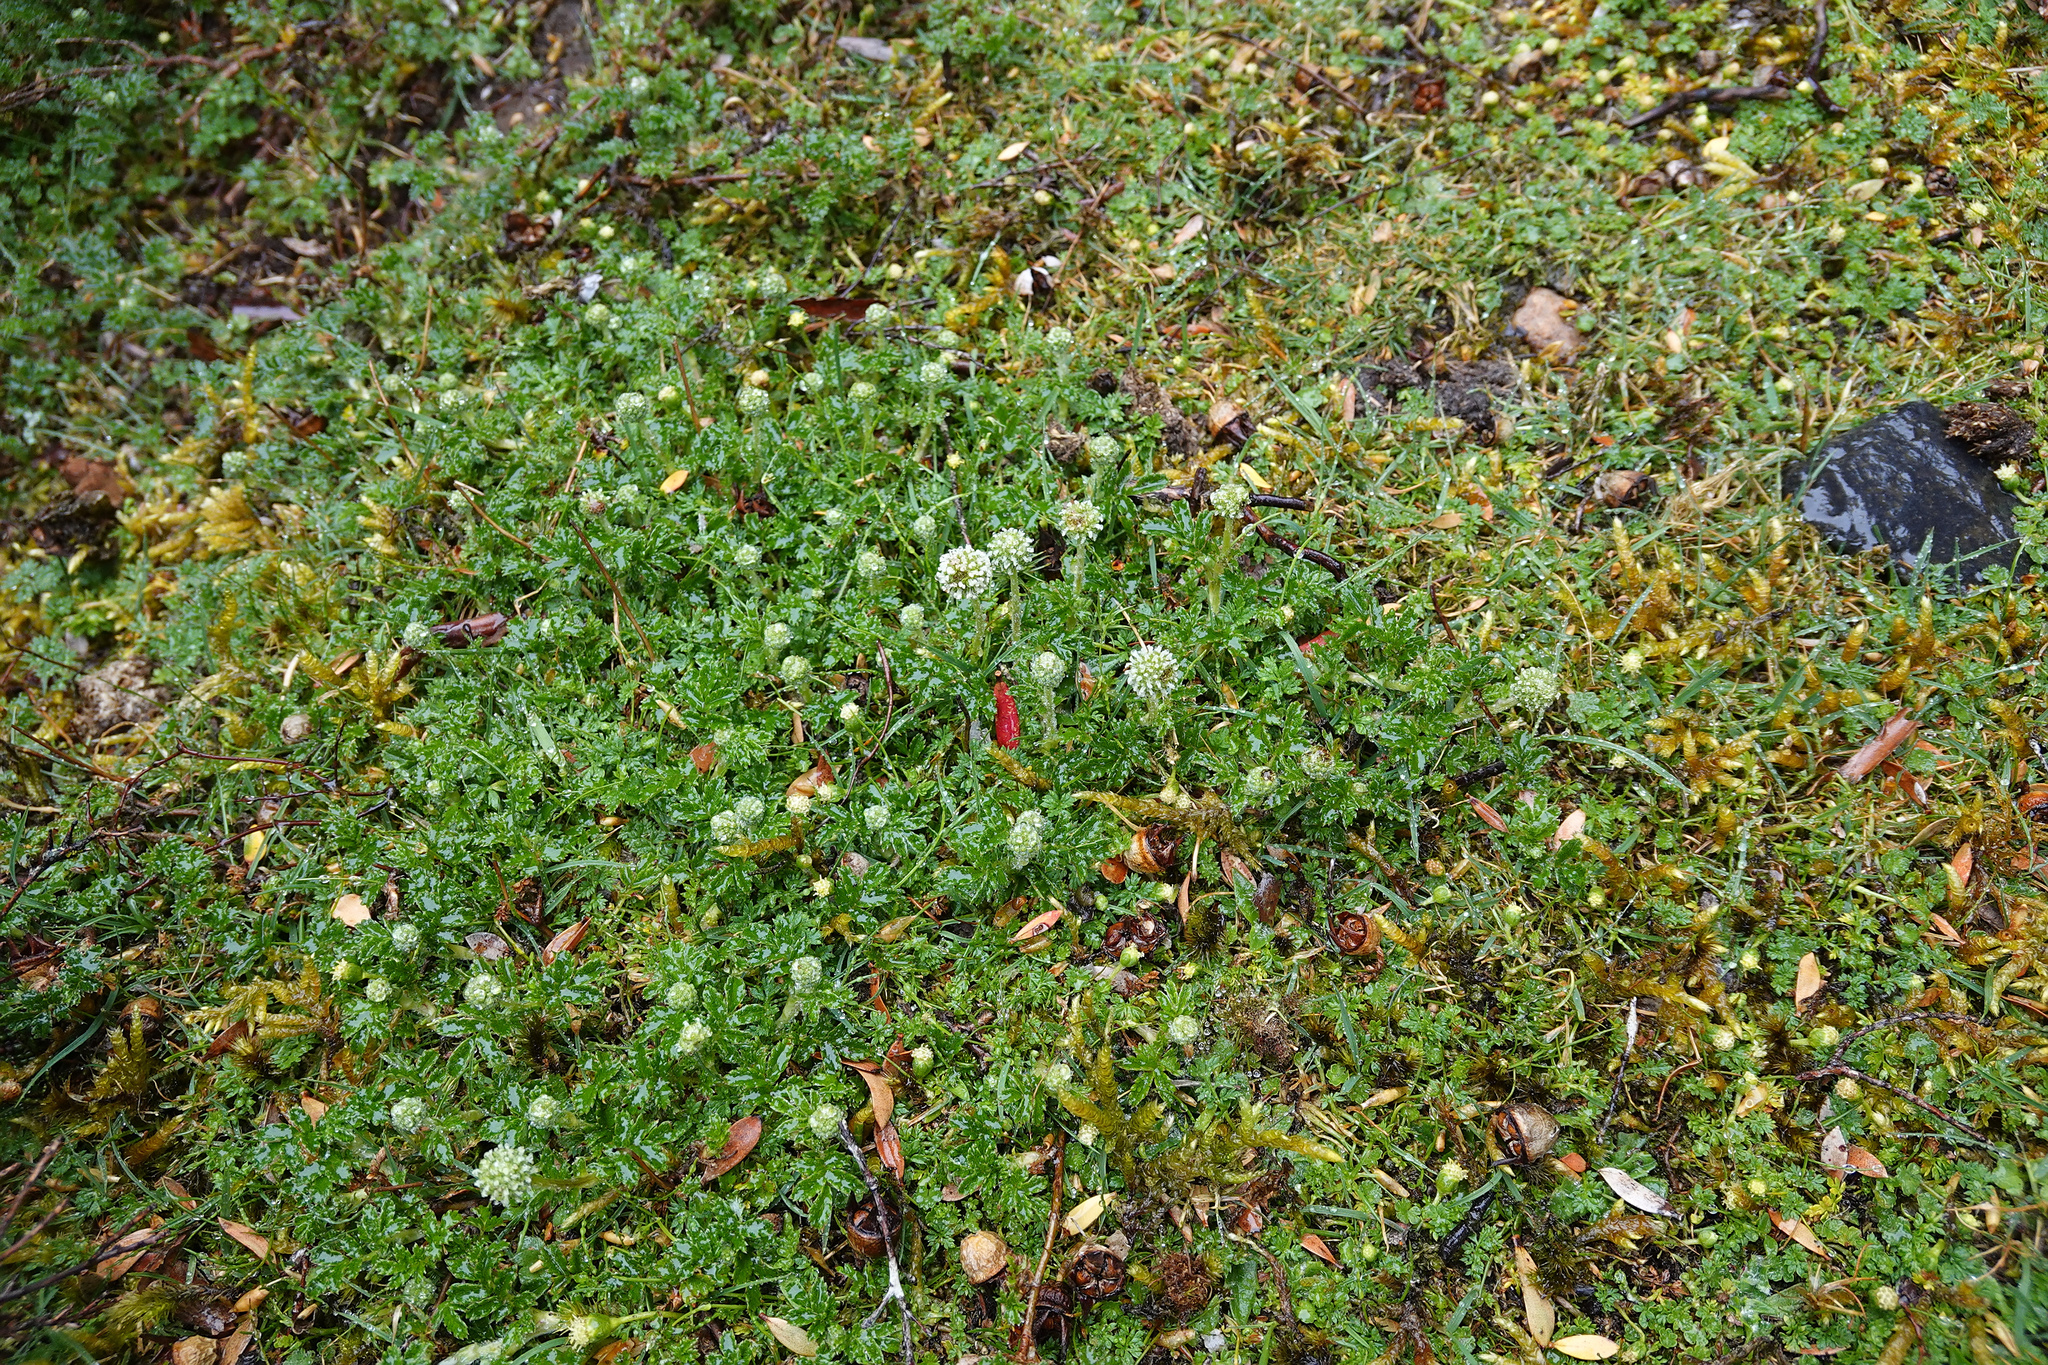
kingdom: Plantae
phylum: Tracheophyta
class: Magnoliopsida
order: Rosales
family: Rosaceae
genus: Acaena
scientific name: Acaena novae-zelandiae
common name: Pirri-pirri-bur
